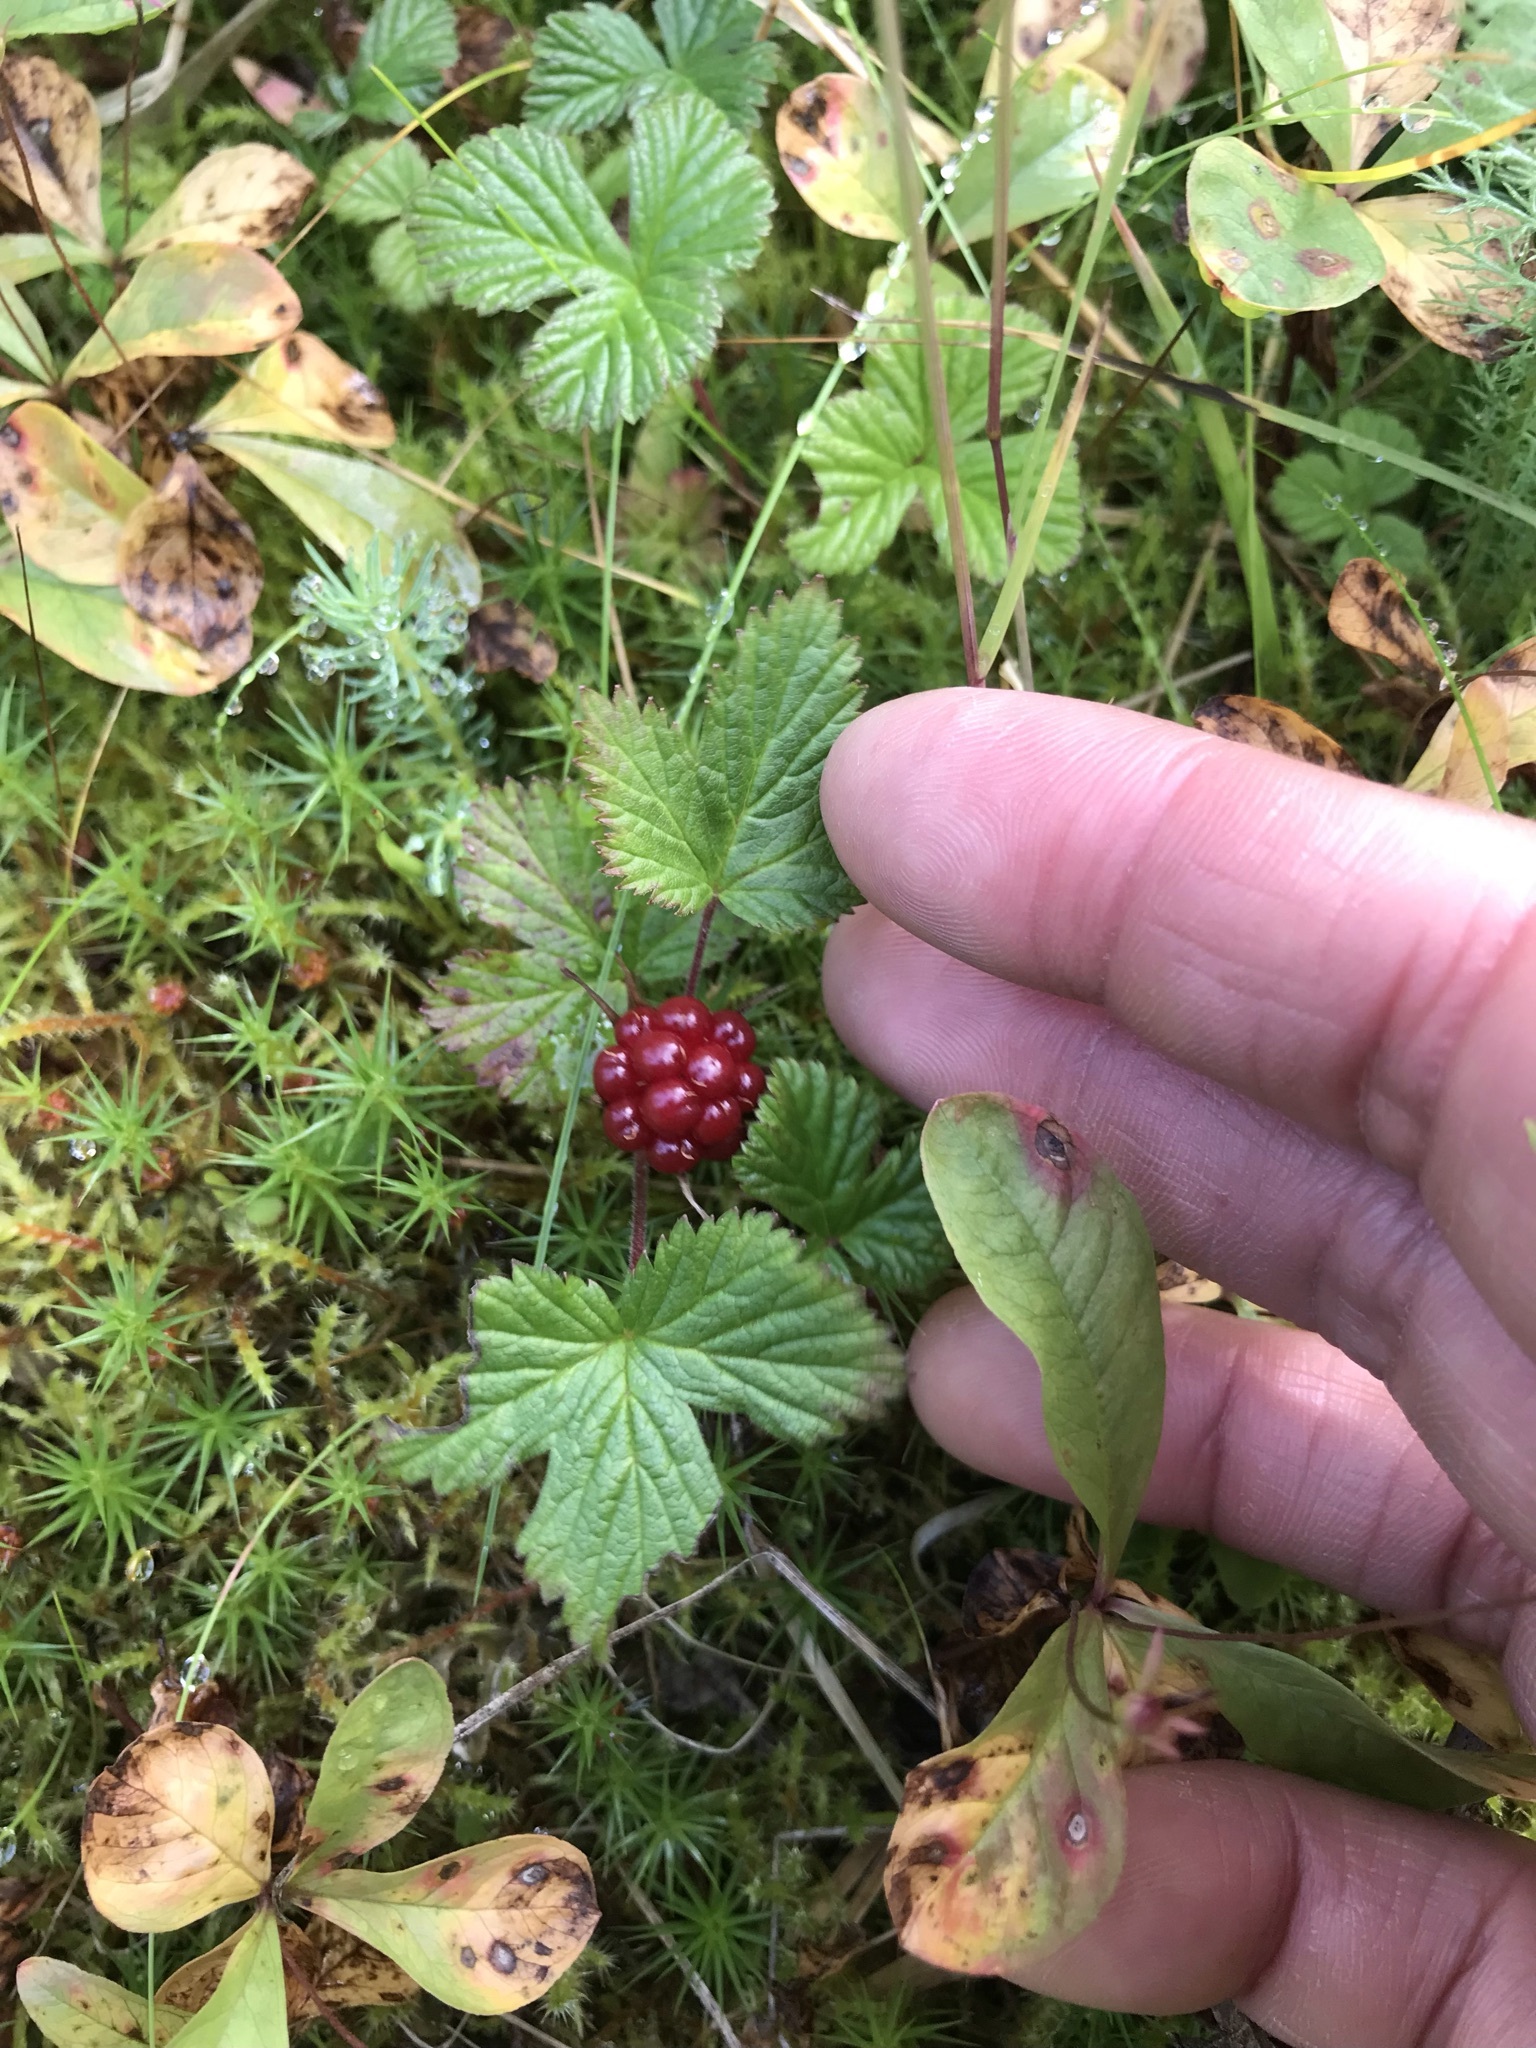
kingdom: Plantae
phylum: Tracheophyta
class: Magnoliopsida
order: Rosales
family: Rosaceae
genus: Rubus
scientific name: Rubus arcticus
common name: Arctic bramble
